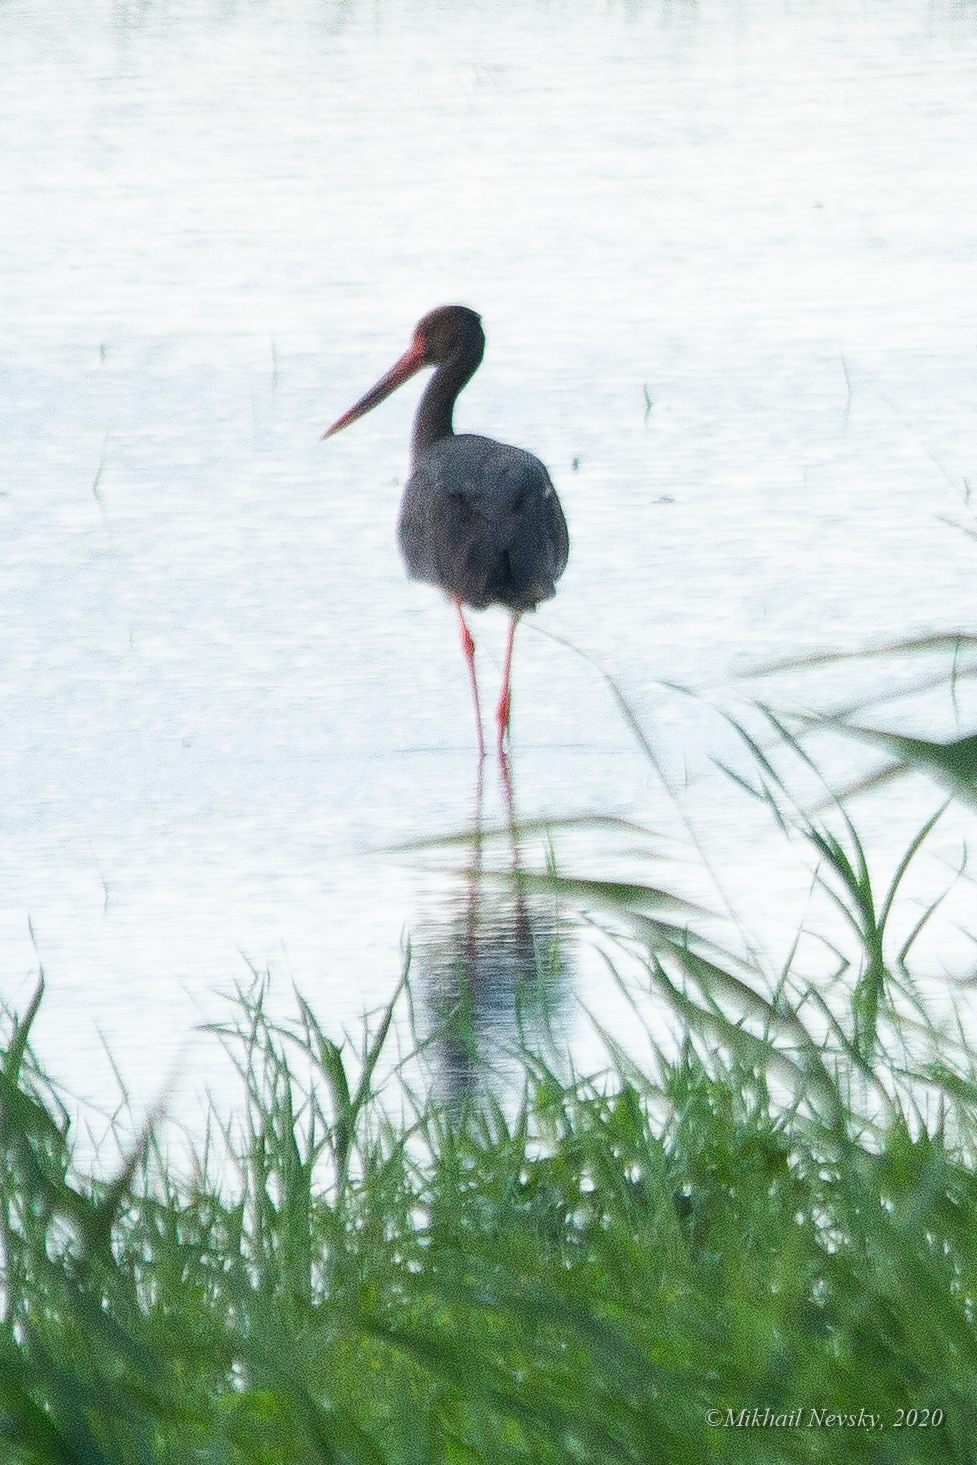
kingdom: Animalia
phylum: Chordata
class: Aves
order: Ciconiiformes
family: Ciconiidae
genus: Ciconia
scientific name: Ciconia nigra
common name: Black stork
